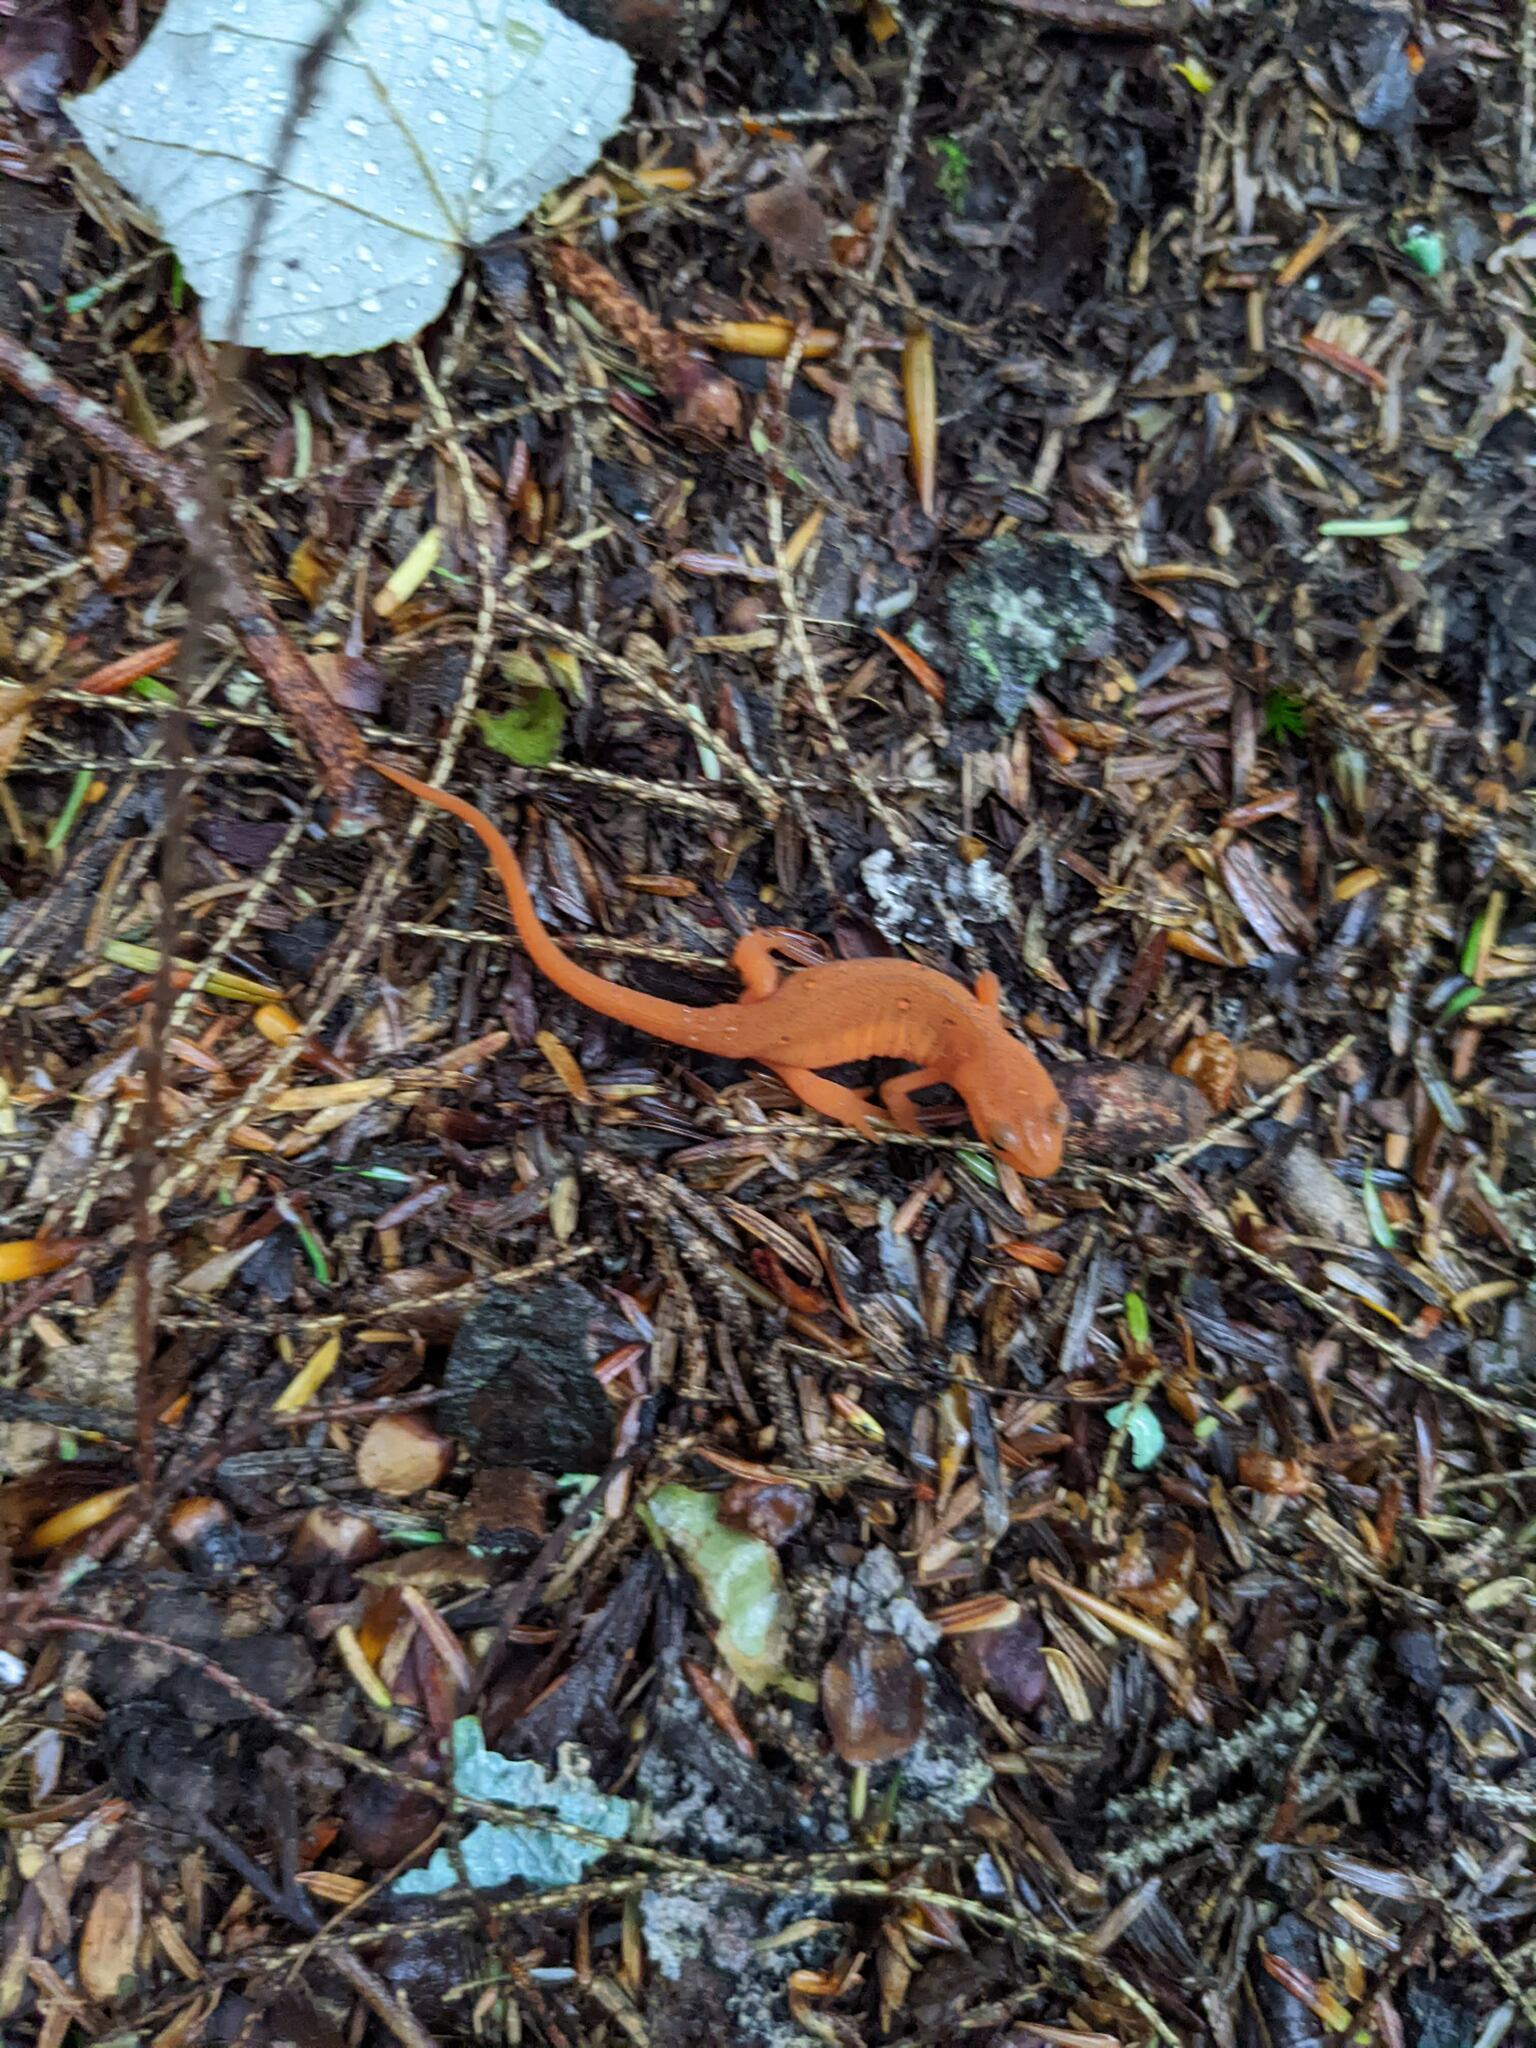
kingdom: Animalia
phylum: Chordata
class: Amphibia
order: Caudata
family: Salamandridae
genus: Notophthalmus
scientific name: Notophthalmus viridescens
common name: Eastern newt
